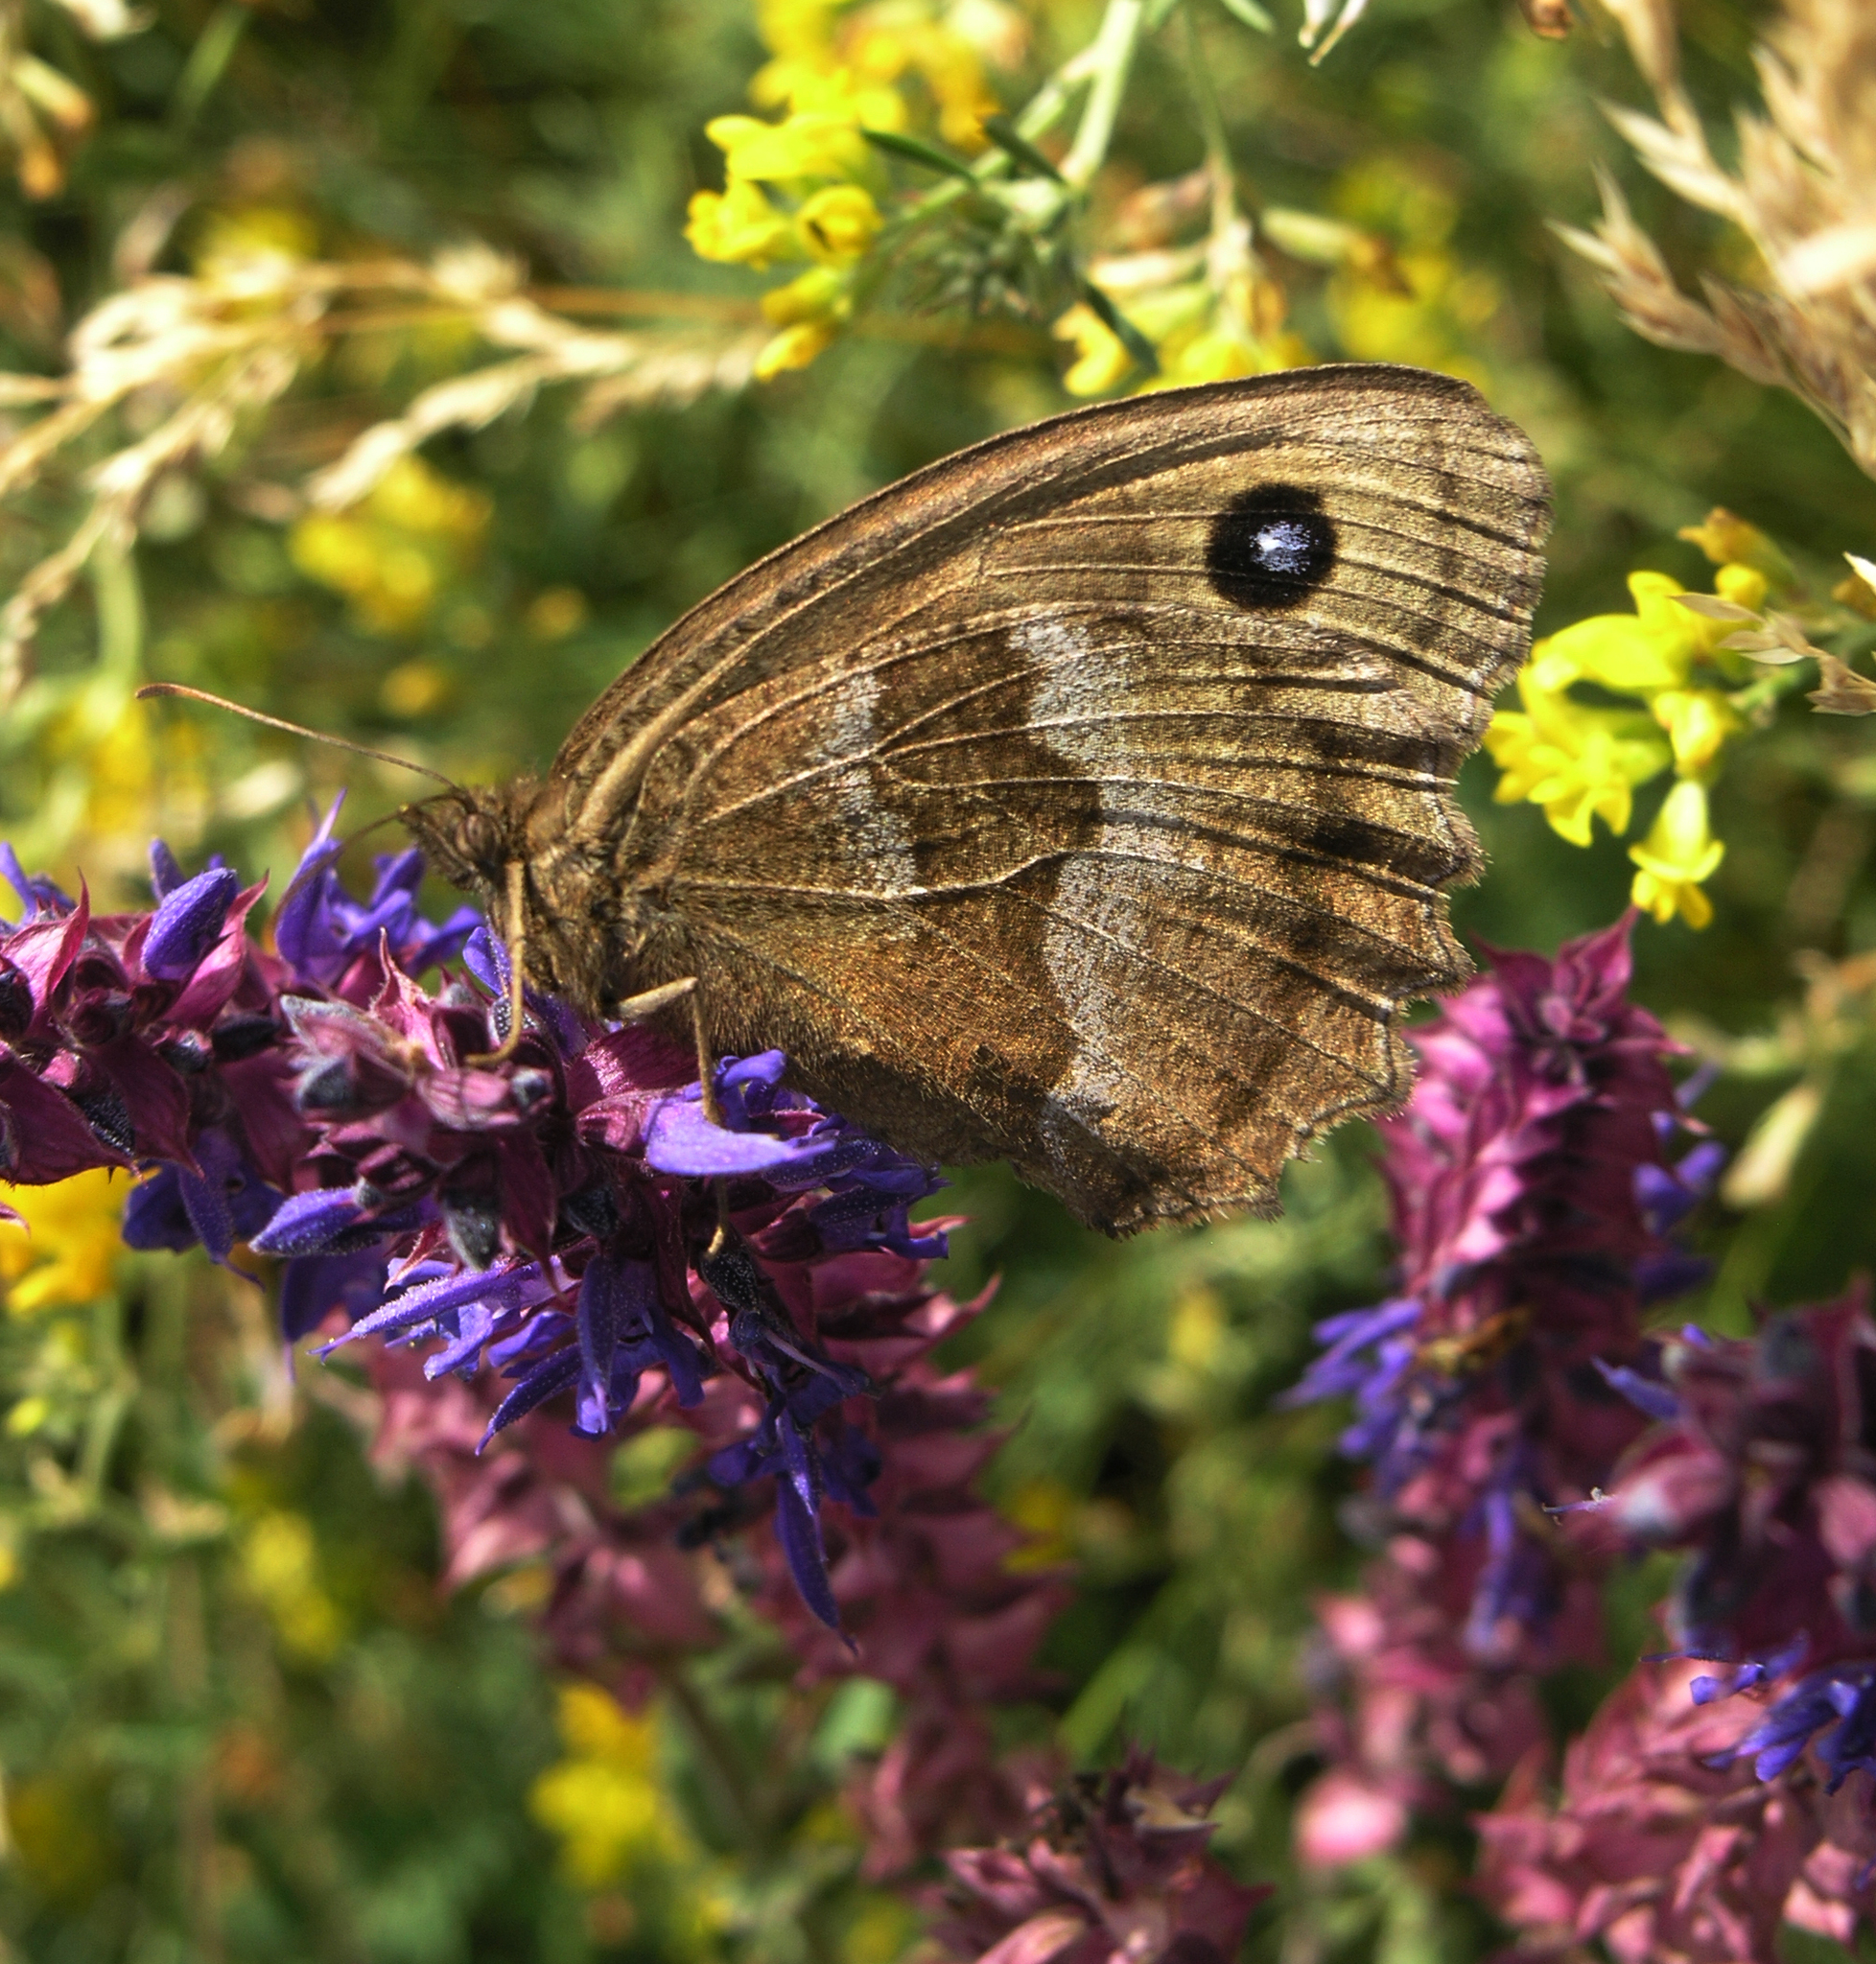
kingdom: Animalia
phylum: Arthropoda
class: Insecta
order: Lepidoptera
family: Nymphalidae
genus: Minois
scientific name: Minois dryas
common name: Dryad
